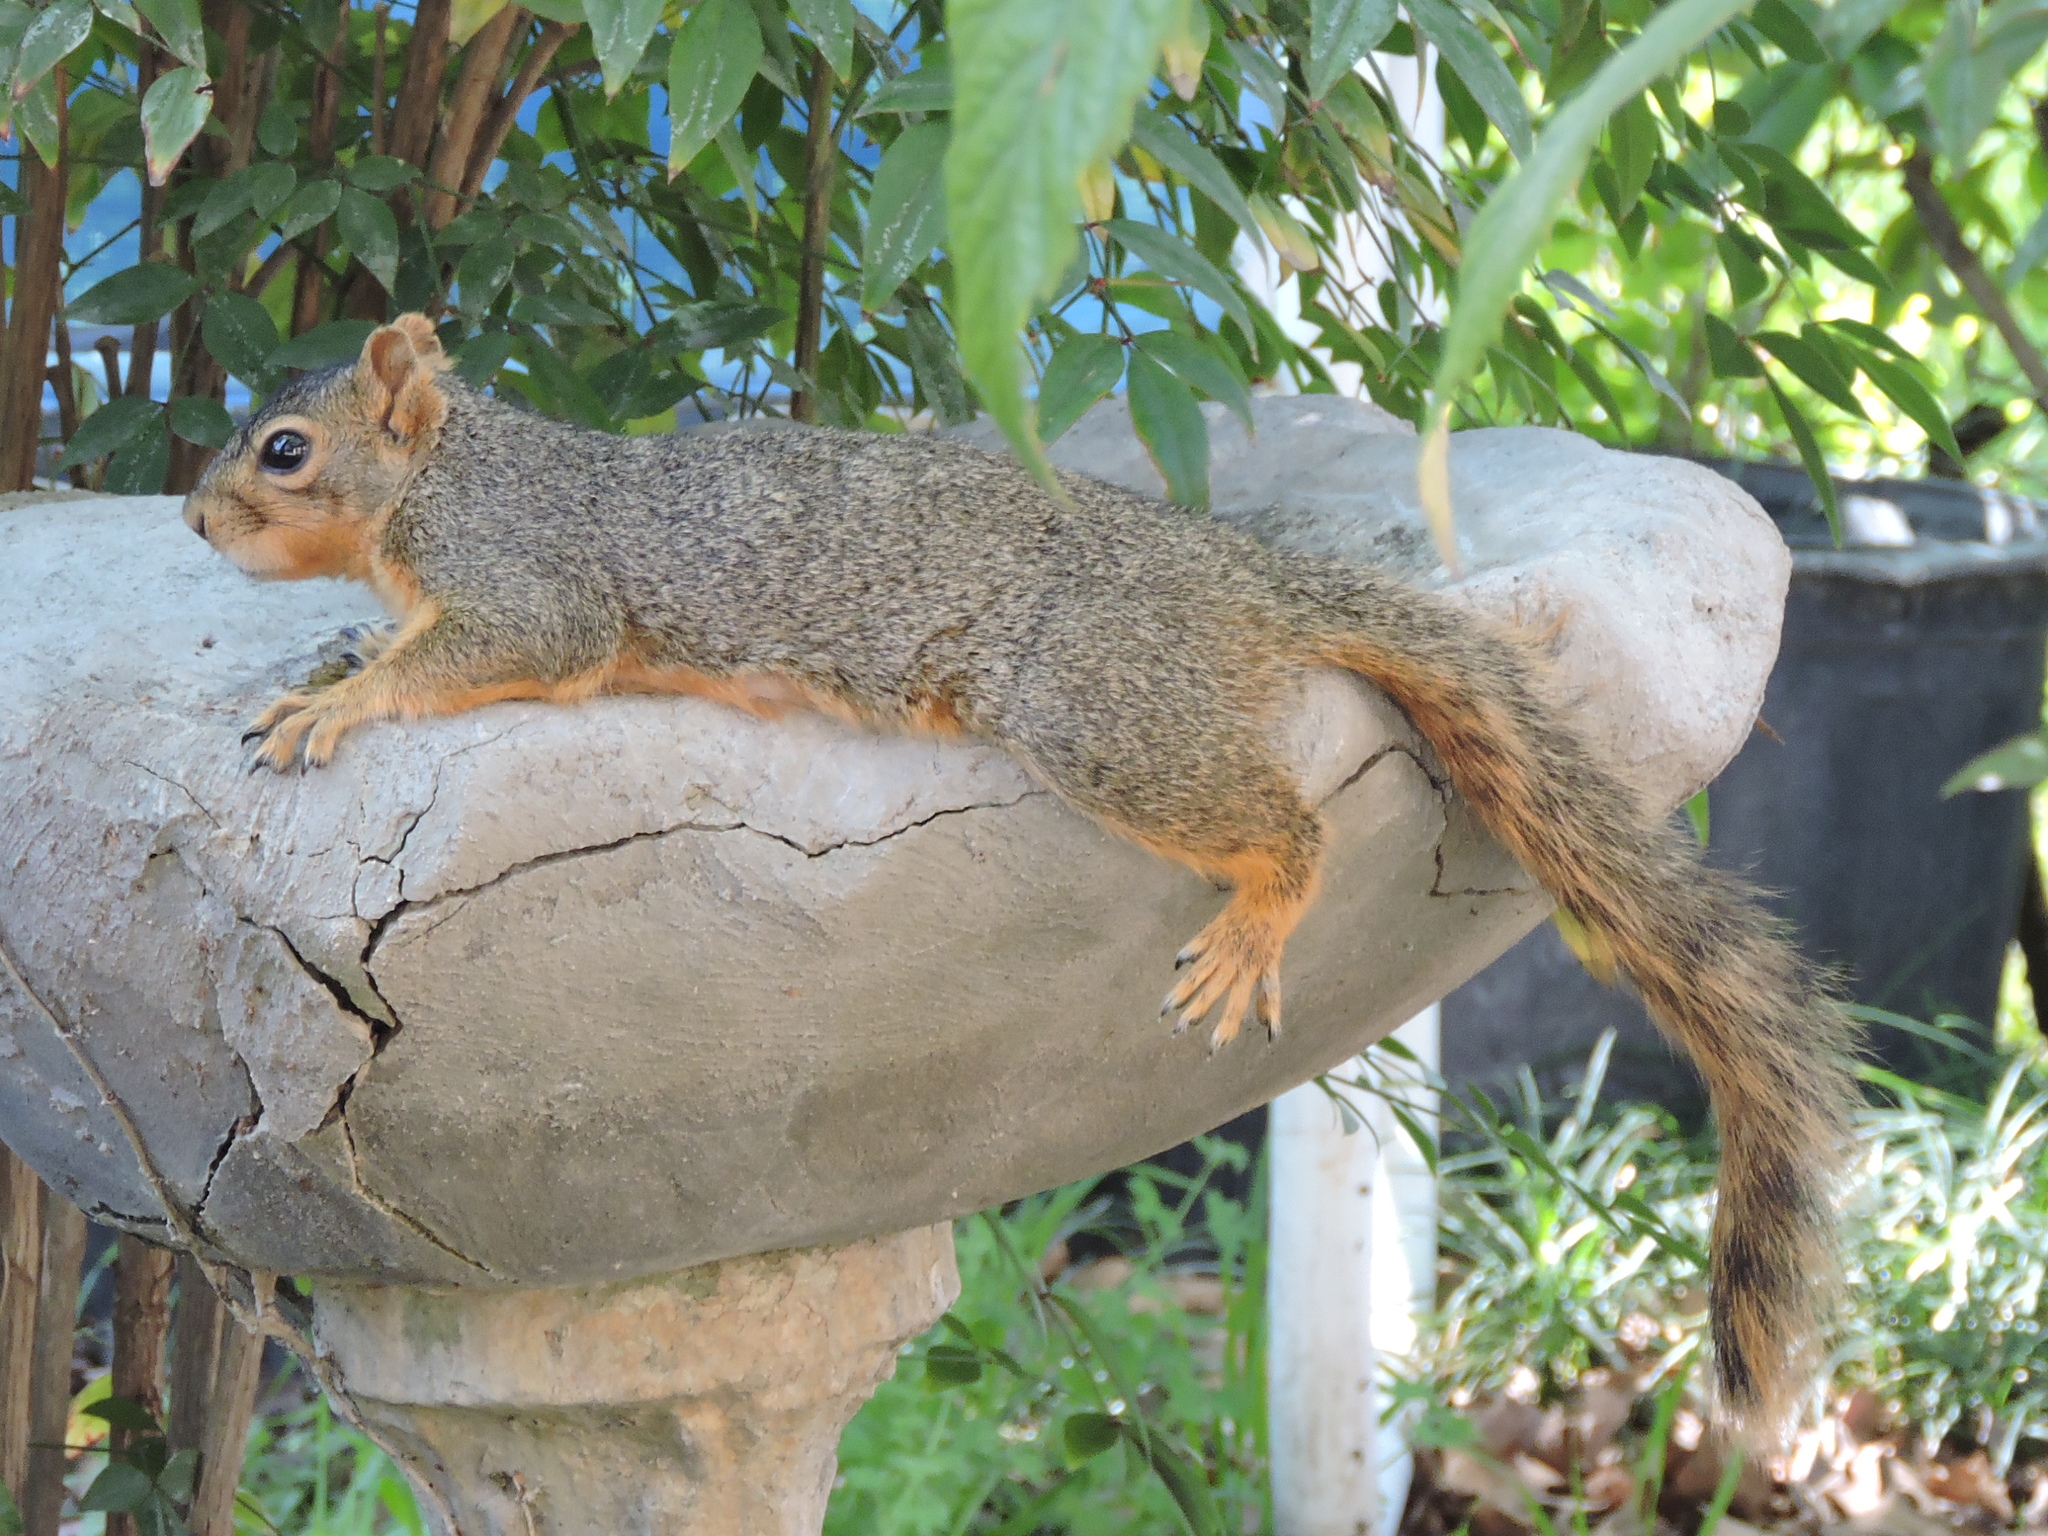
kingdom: Animalia
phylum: Chordata
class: Mammalia
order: Rodentia
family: Sciuridae
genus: Sciurus
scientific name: Sciurus niger
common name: Fox squirrel
